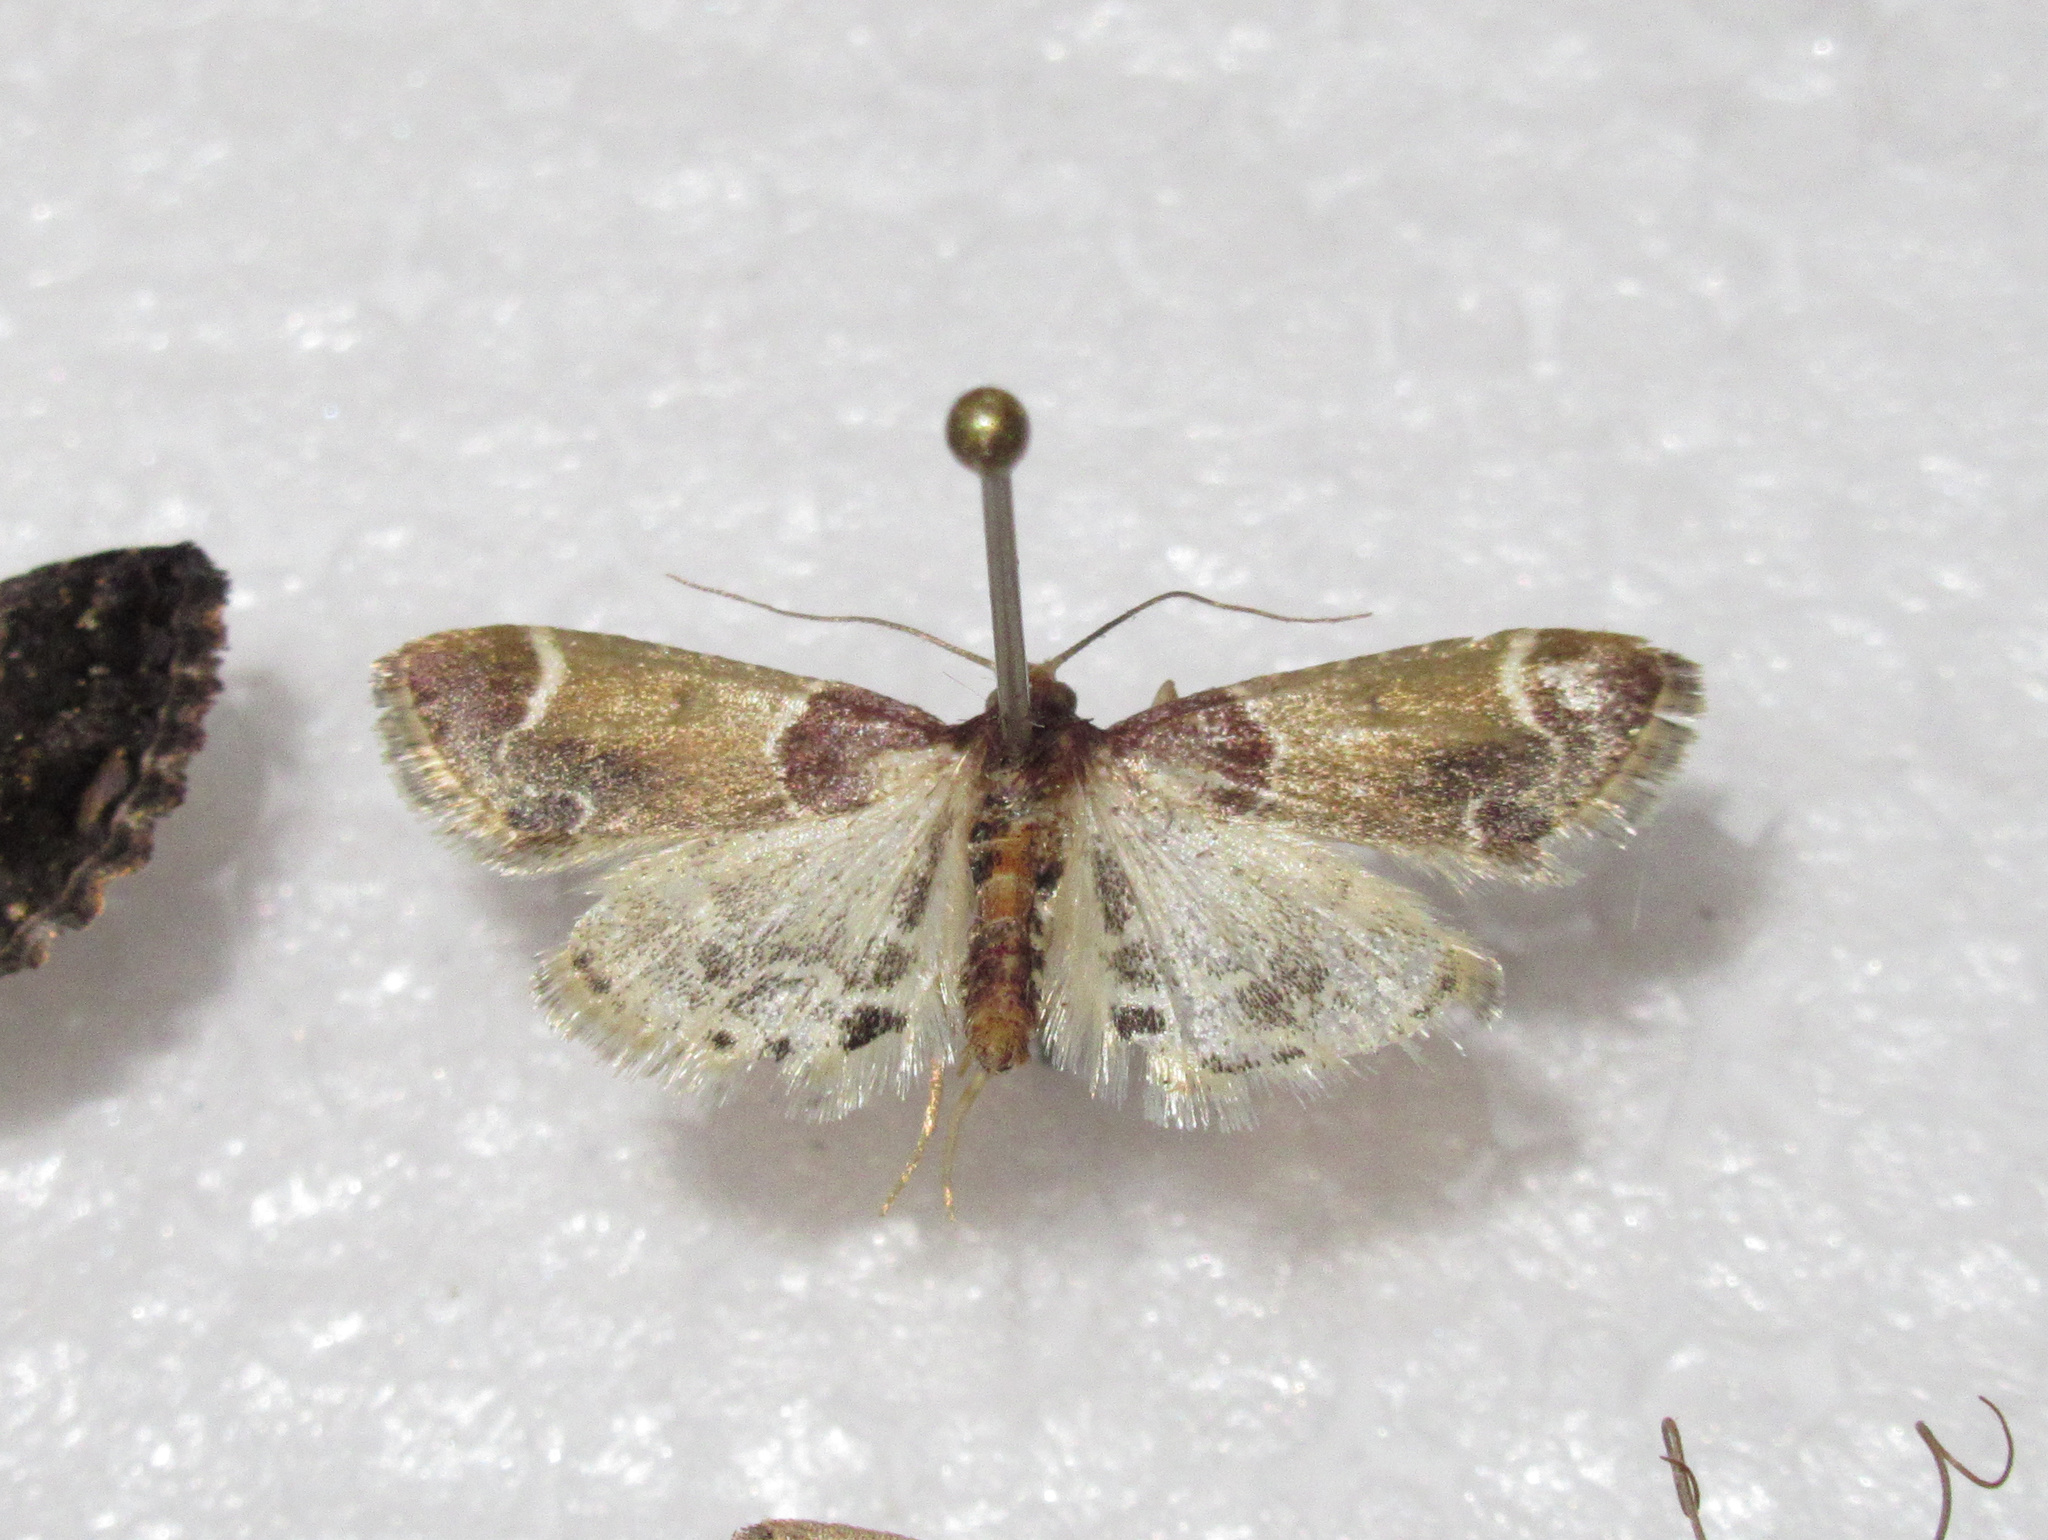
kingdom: Animalia
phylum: Arthropoda
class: Insecta
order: Lepidoptera
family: Pyralidae
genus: Pyralis
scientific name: Pyralis farinalis
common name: Meal moth
